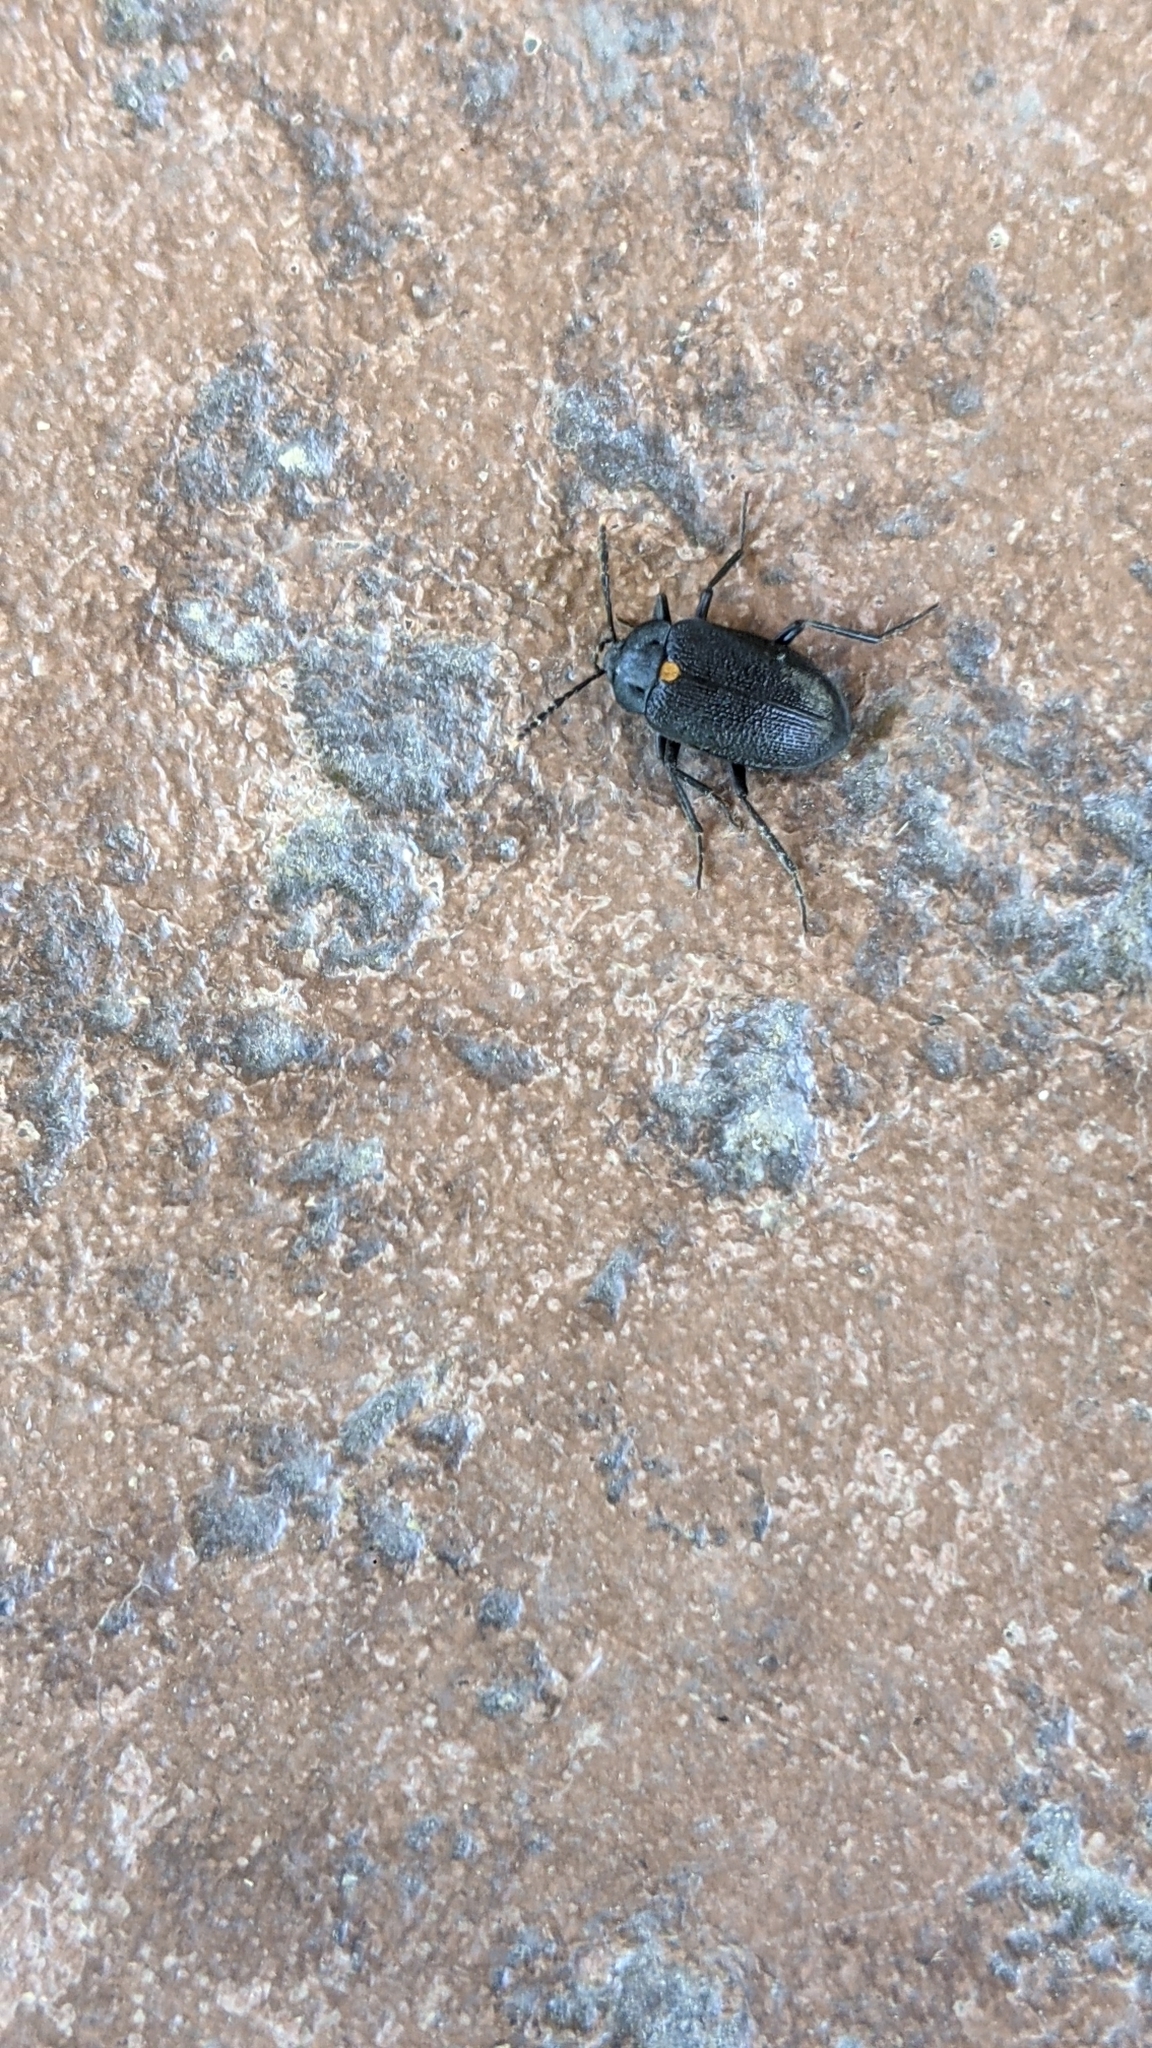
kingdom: Animalia
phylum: Arthropoda
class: Insecta
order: Coleoptera
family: Tetratomidae
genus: Penthe
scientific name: Penthe obliquata
